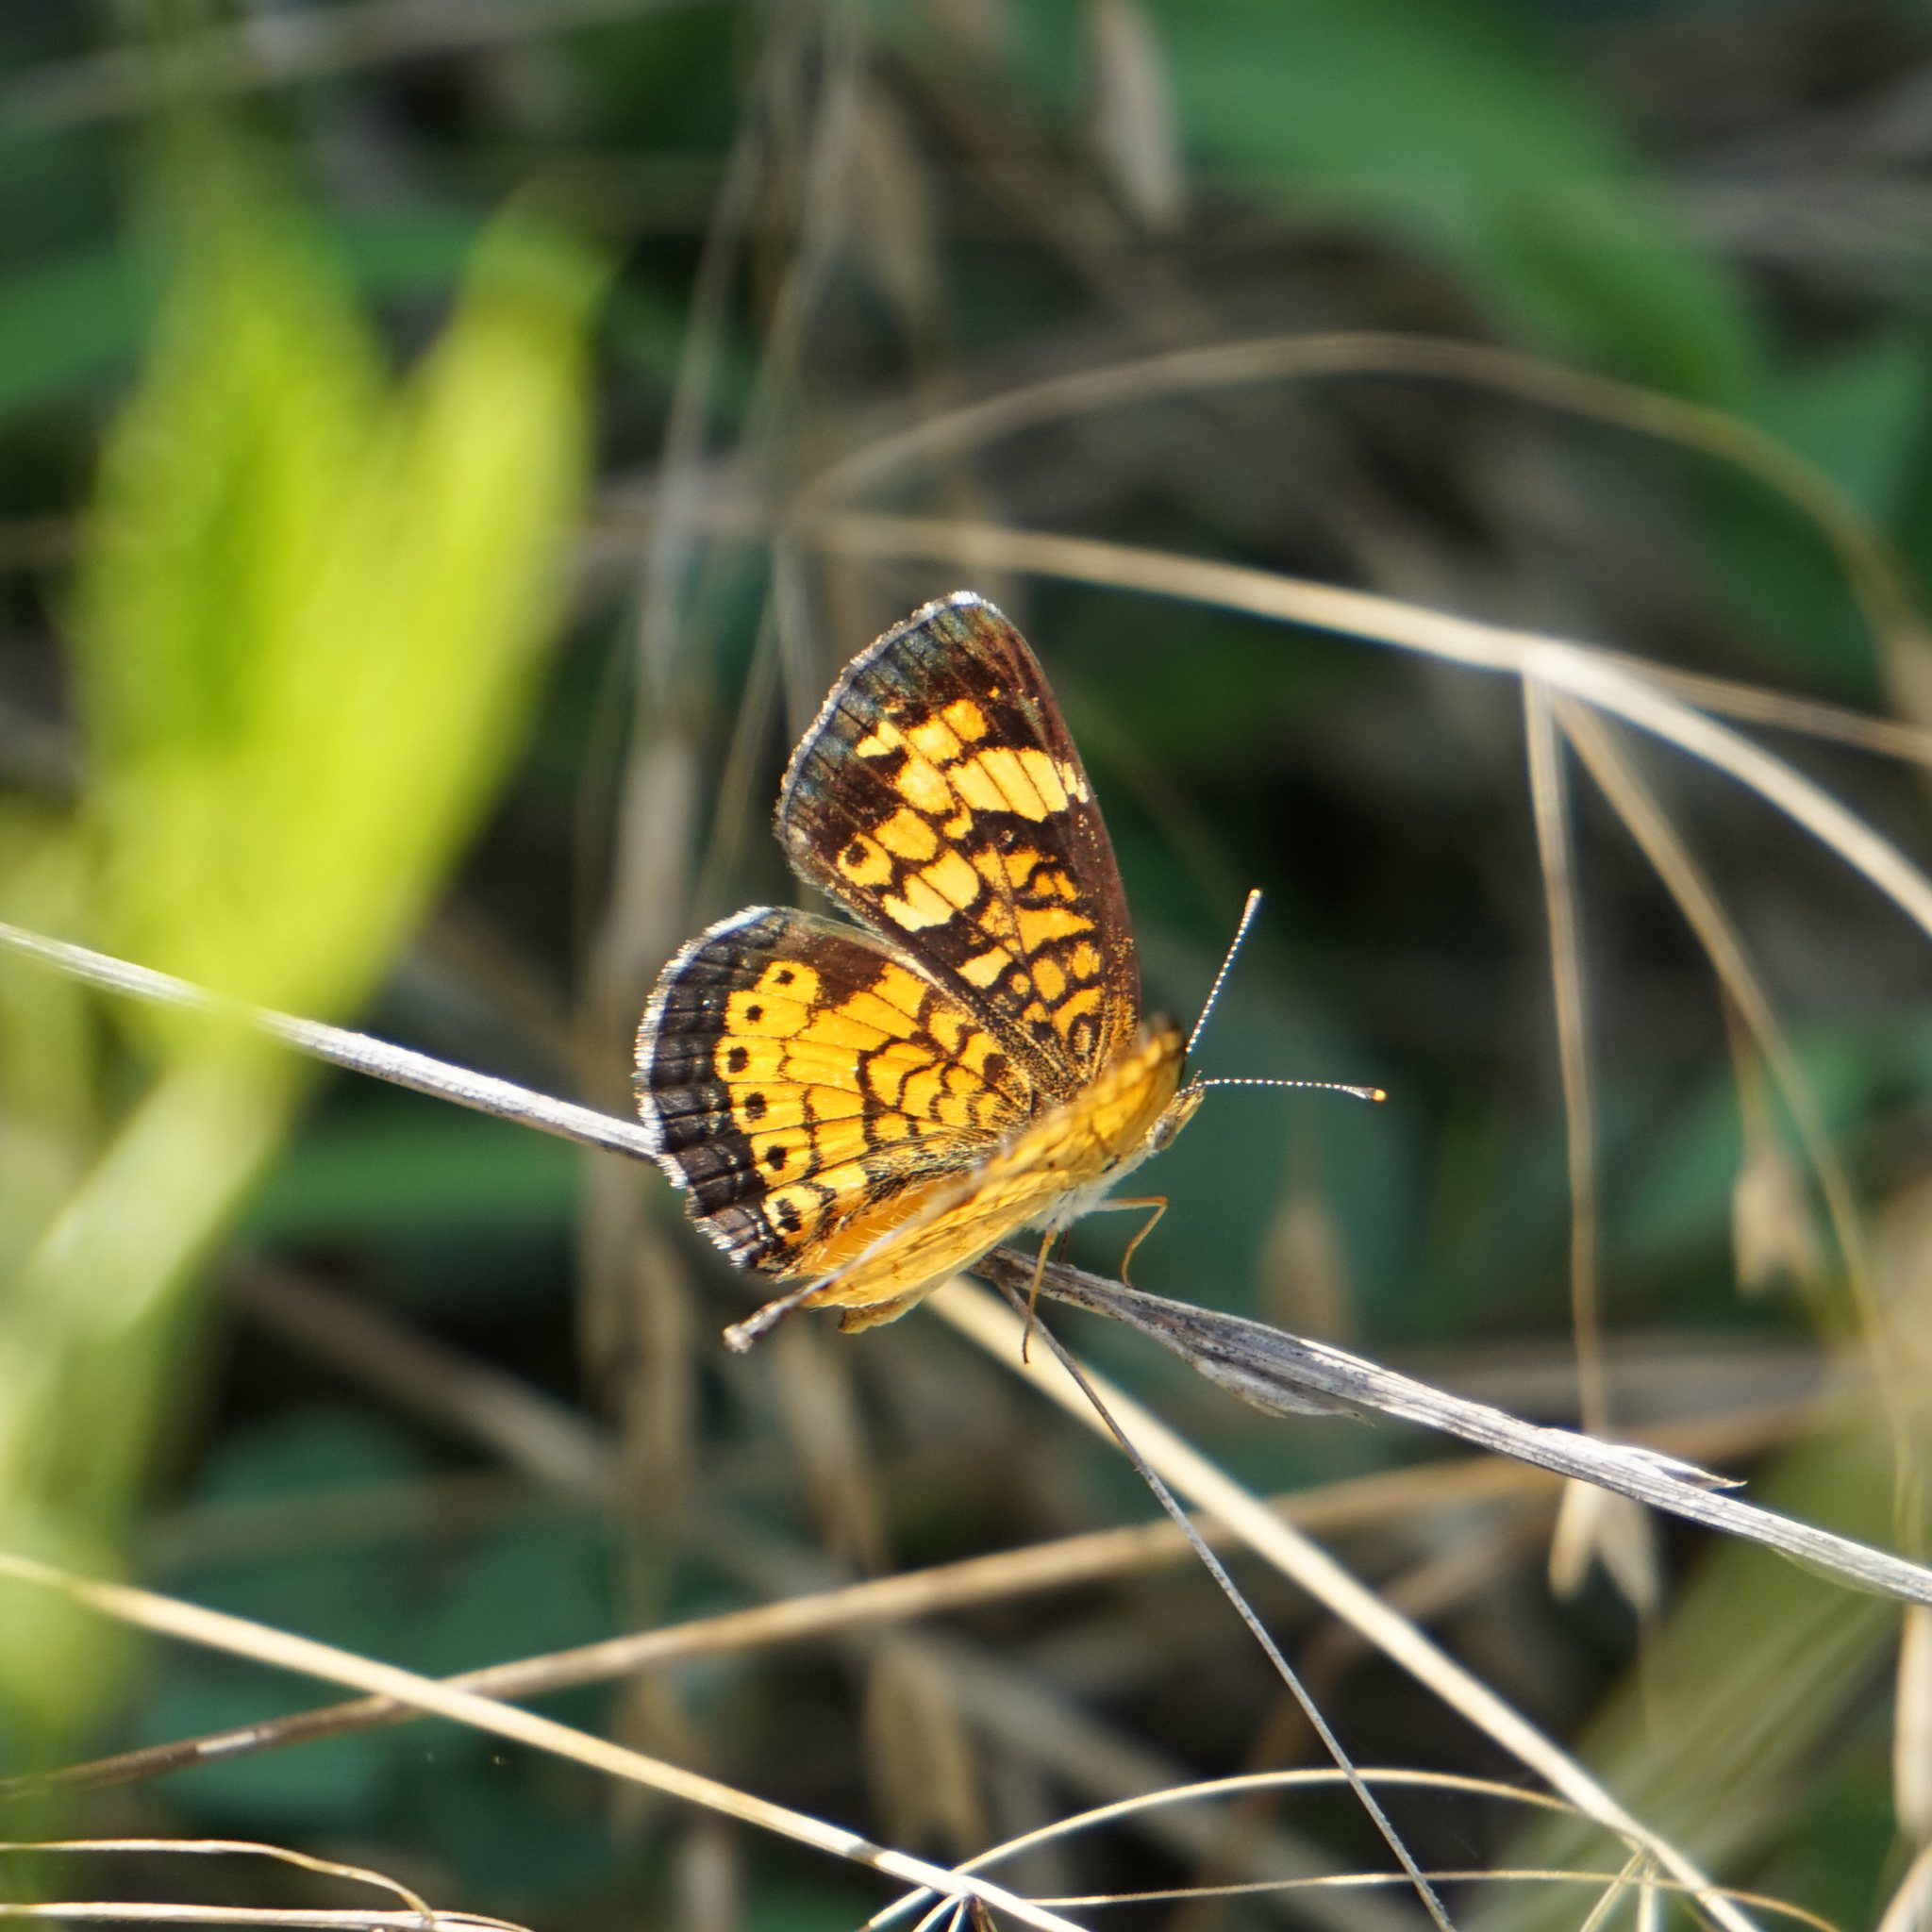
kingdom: Animalia
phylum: Arthropoda
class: Insecta
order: Lepidoptera
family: Nymphalidae
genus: Phyciodes
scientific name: Phyciodes tharos
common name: Pearl crescent
